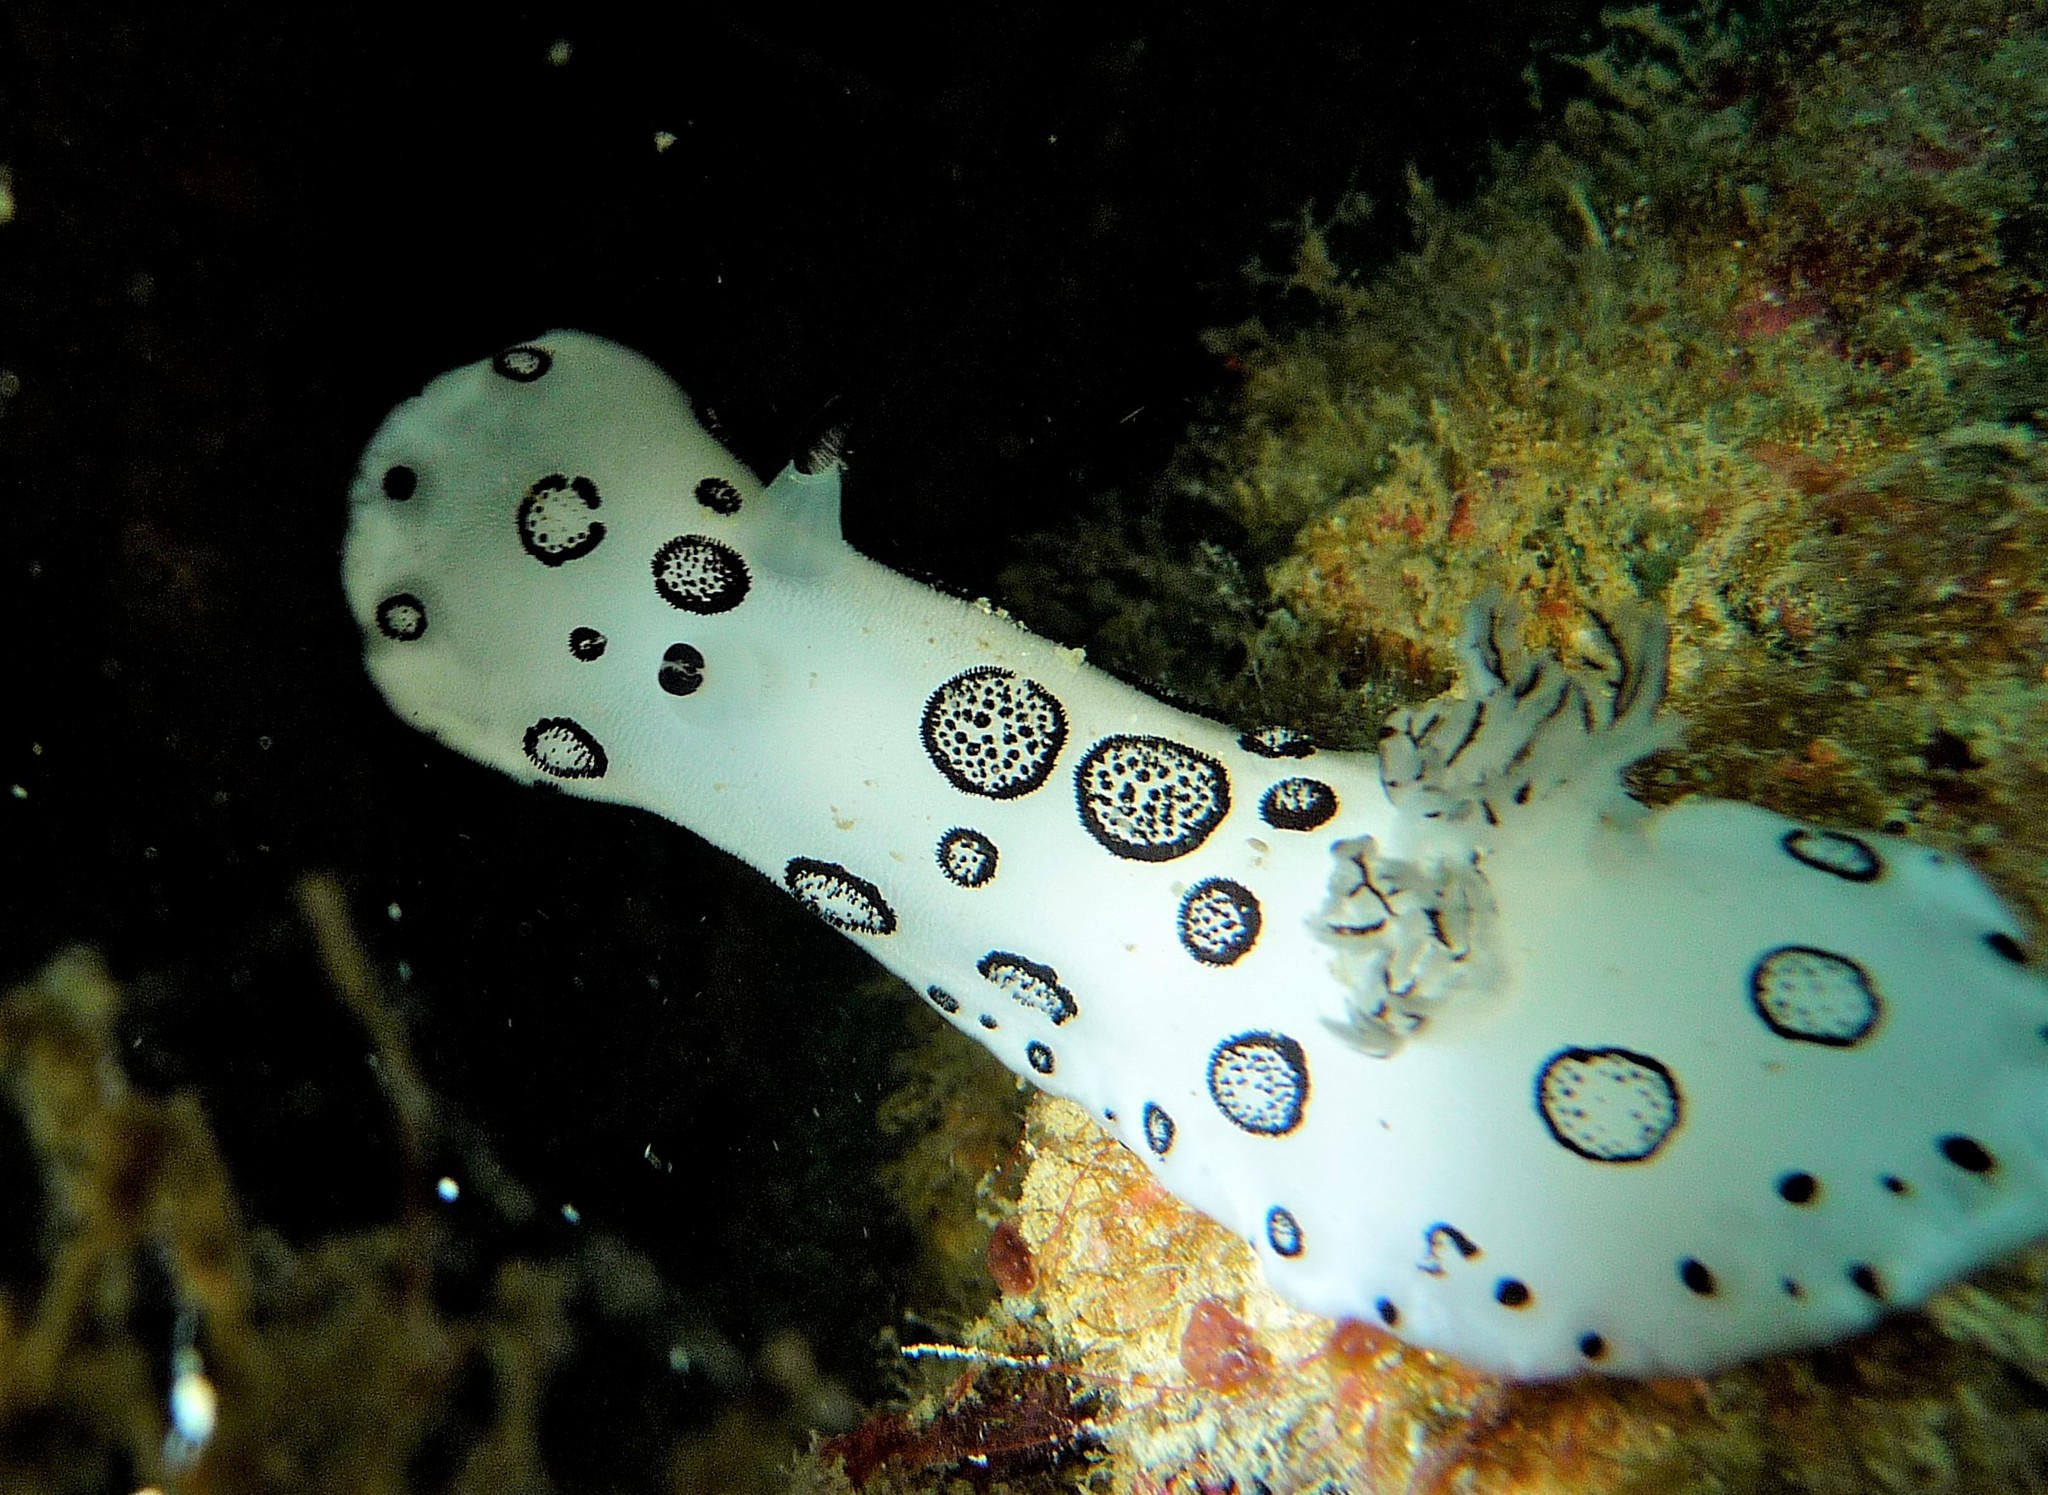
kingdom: Animalia
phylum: Mollusca
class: Gastropoda
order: Nudibranchia
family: Discodorididae
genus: Jorunna
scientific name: Jorunna funebris
